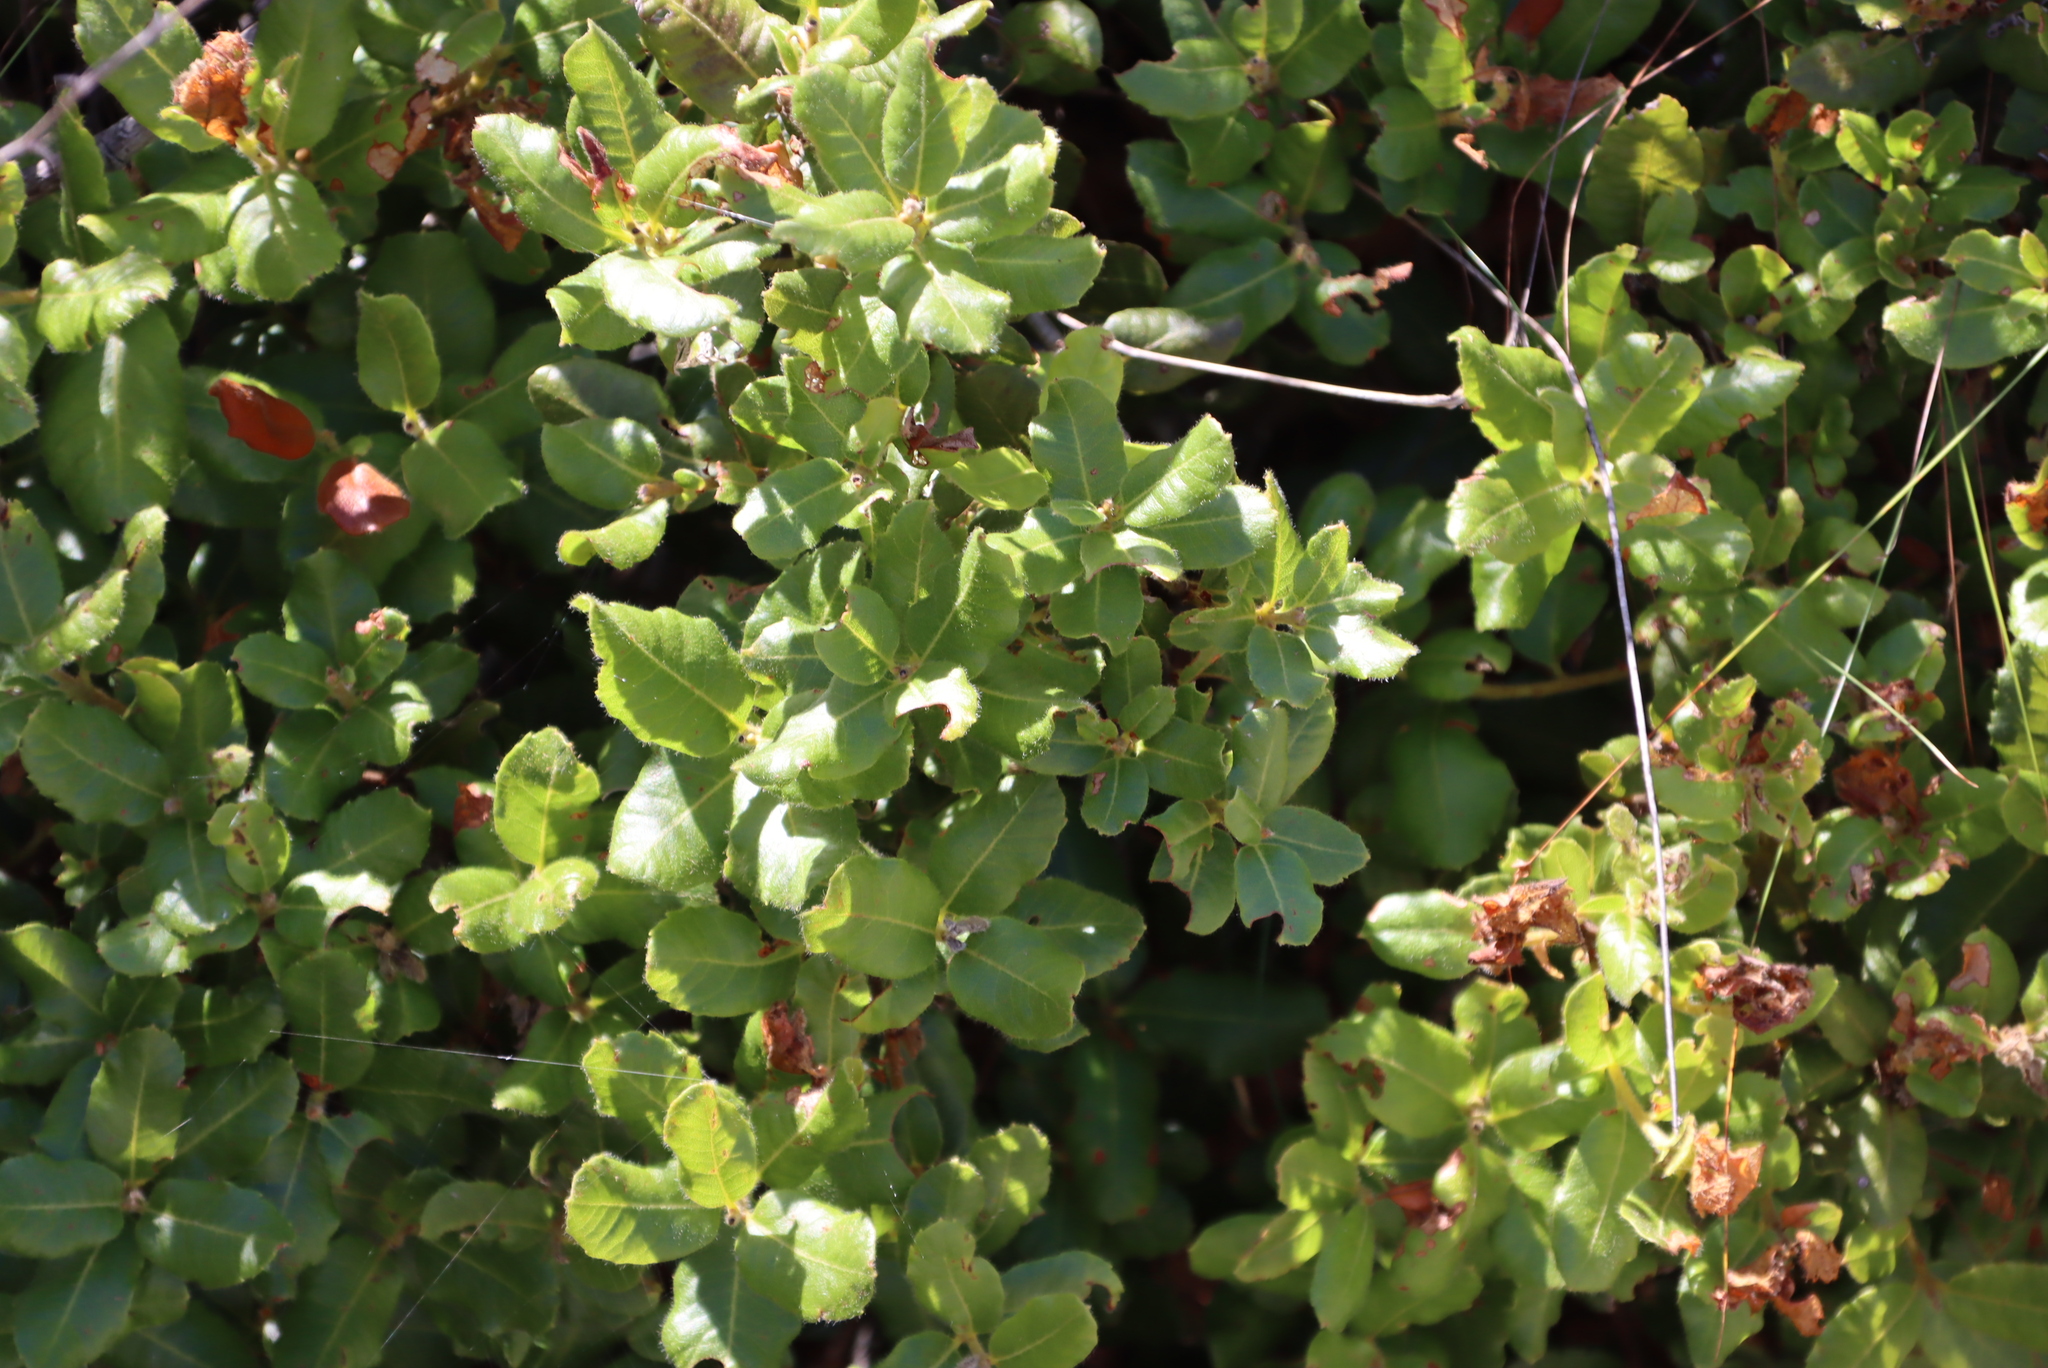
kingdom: Plantae
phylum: Tracheophyta
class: Magnoliopsida
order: Fagales
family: Myricaceae
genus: Morella
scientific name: Morella kraussiana
